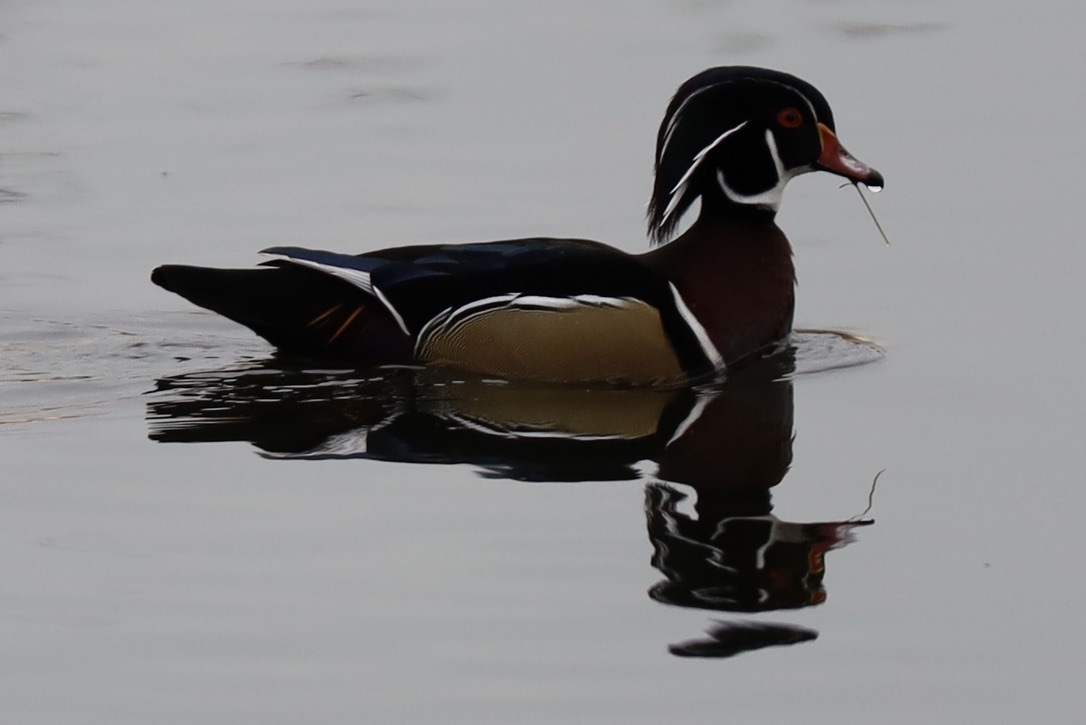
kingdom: Animalia
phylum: Chordata
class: Aves
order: Anseriformes
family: Anatidae
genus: Aix
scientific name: Aix sponsa
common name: Wood duck
